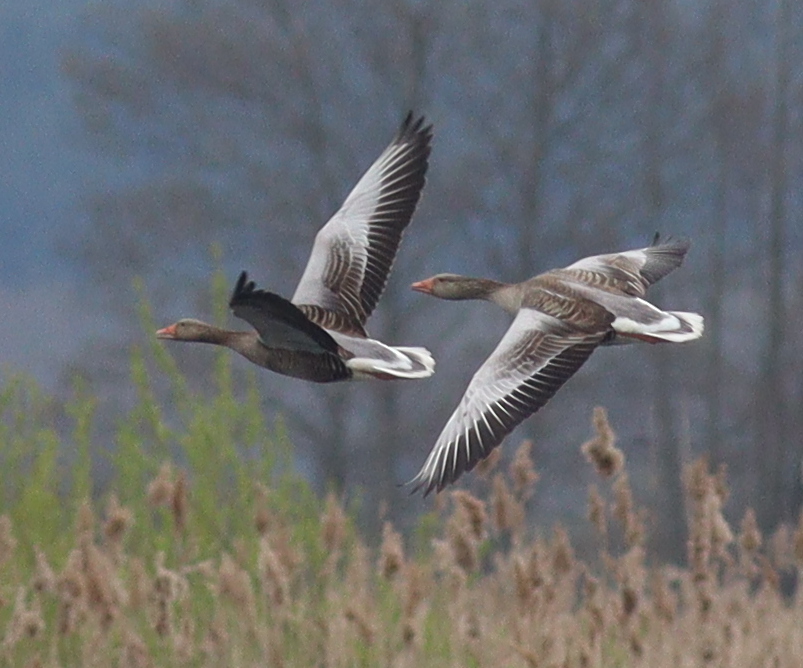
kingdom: Animalia
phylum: Chordata
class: Aves
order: Anseriformes
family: Anatidae
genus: Anser
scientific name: Anser anser
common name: Greylag goose
